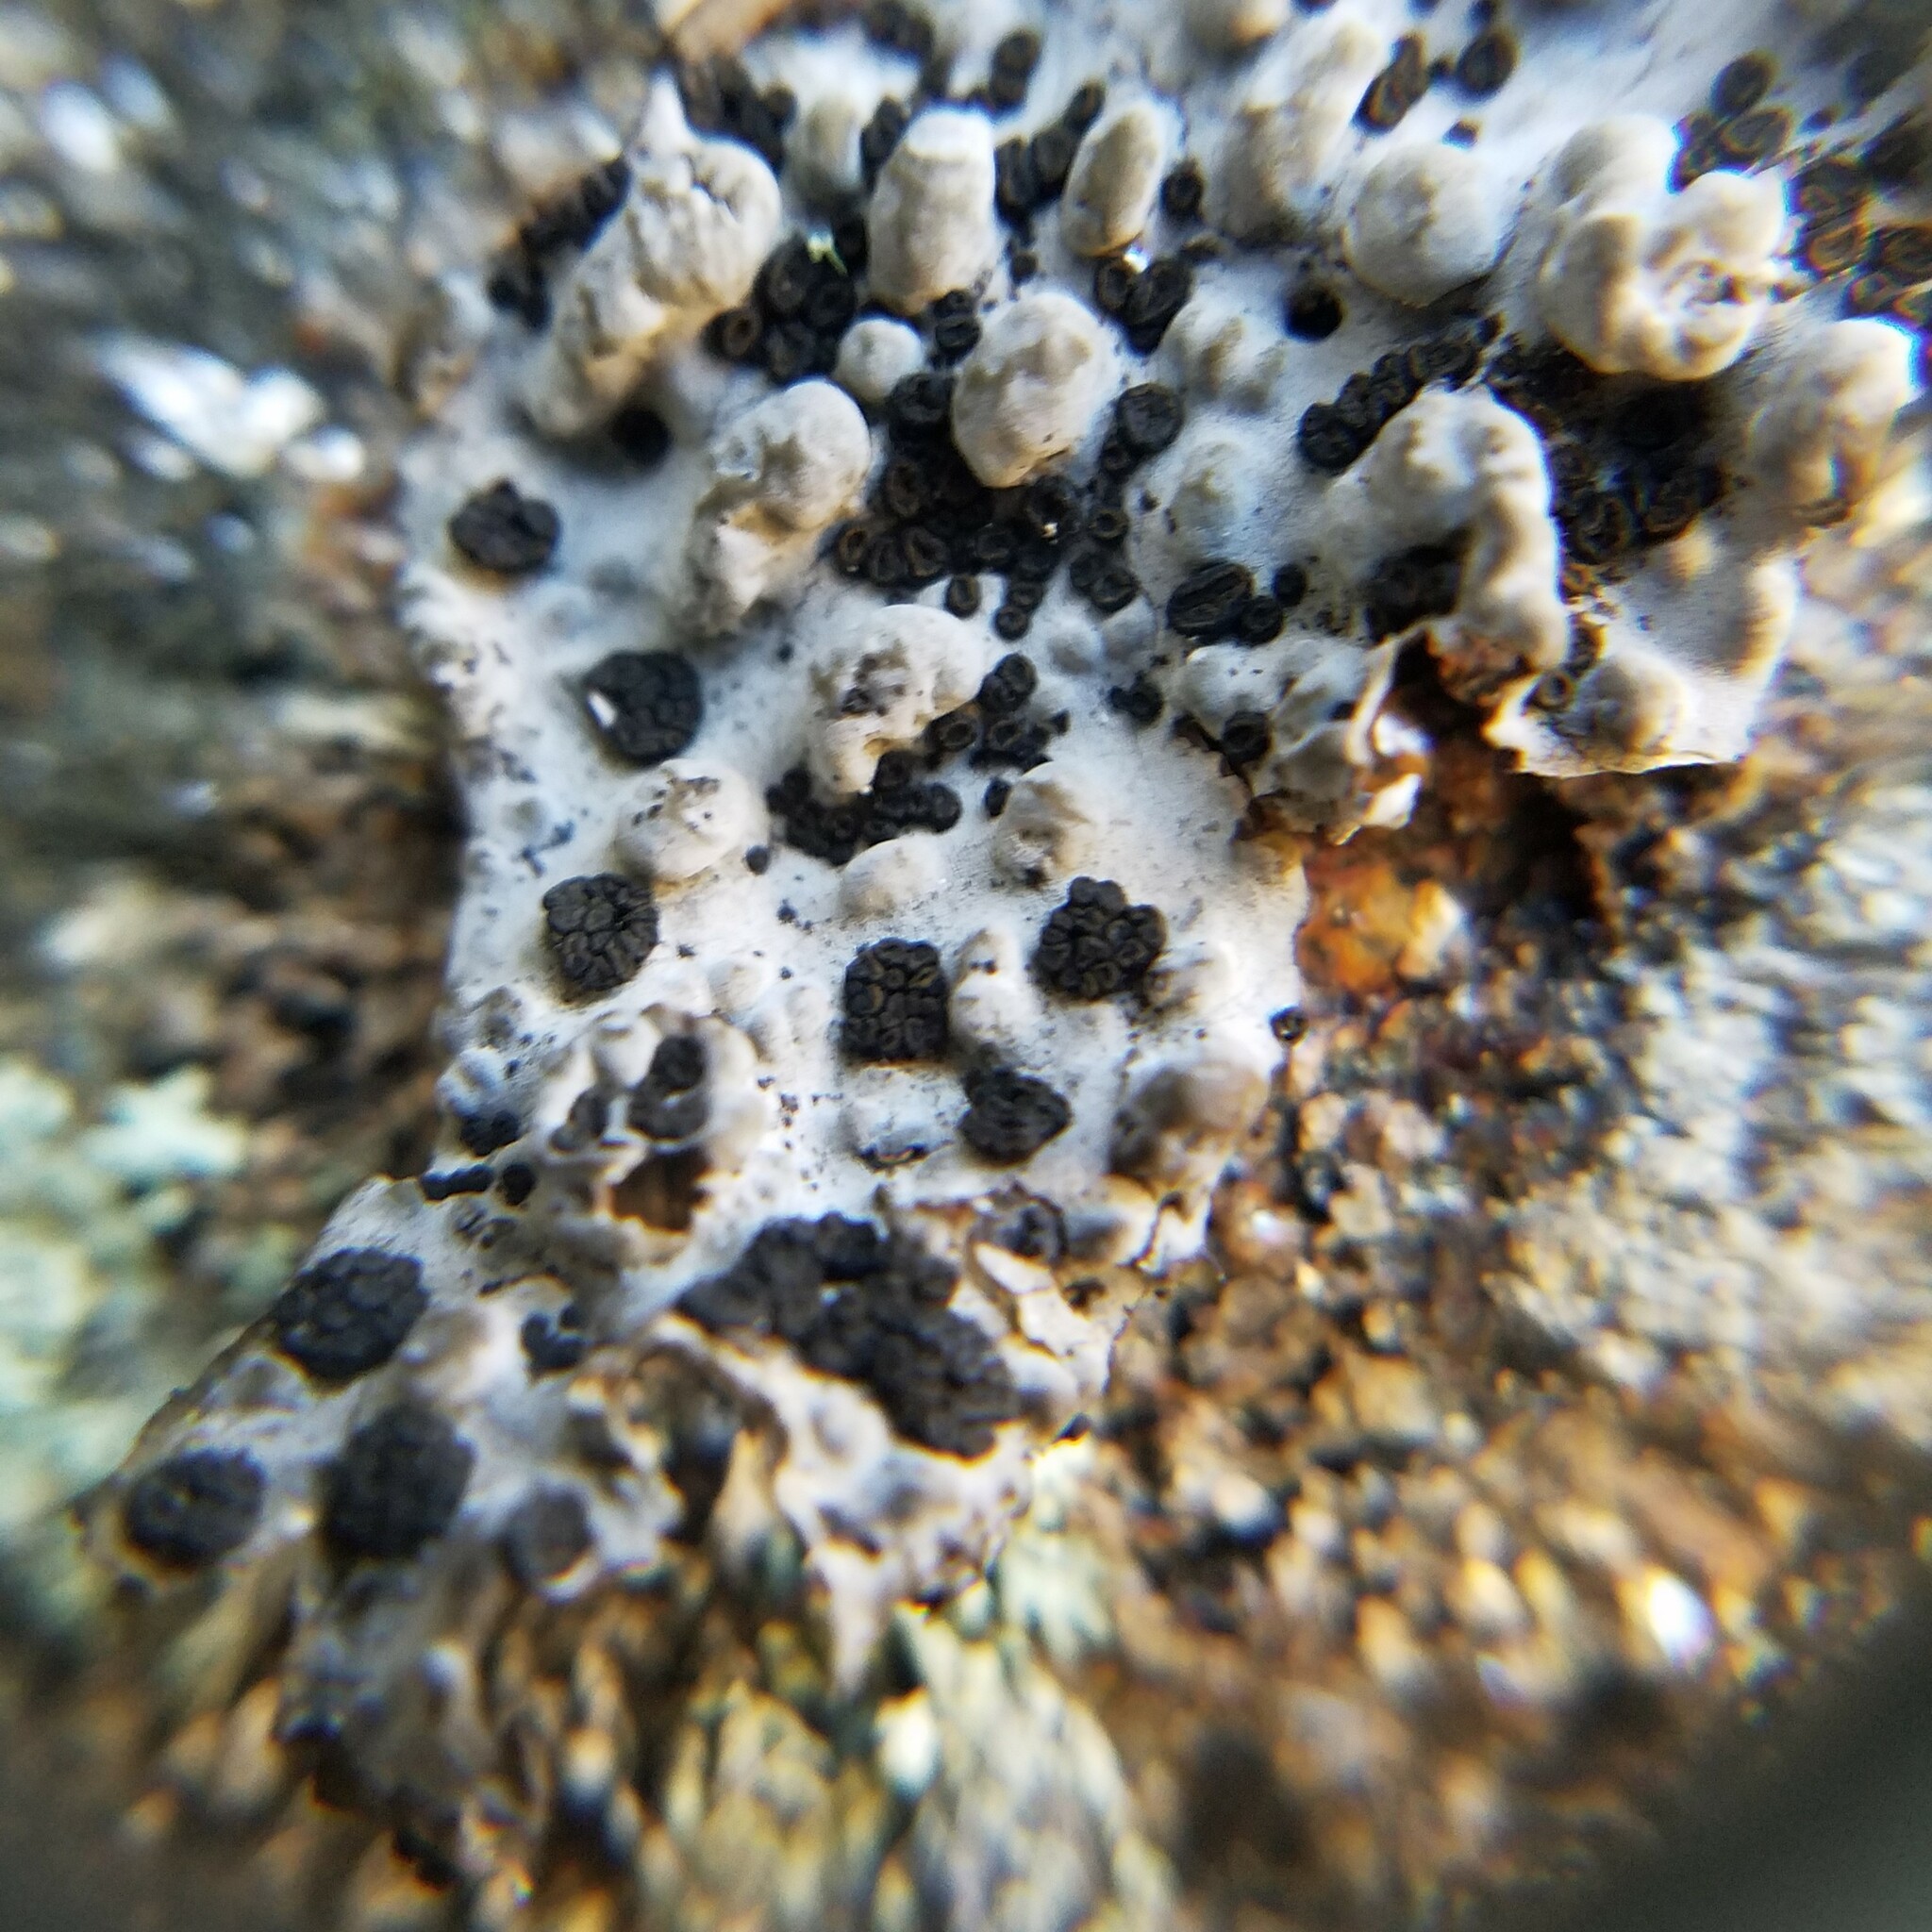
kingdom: Fungi
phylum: Ascomycota
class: Lecanoromycetes
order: Umbilicariales
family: Umbilicariaceae
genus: Lasallia
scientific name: Lasallia papulosa
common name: Common toadskin lichen
